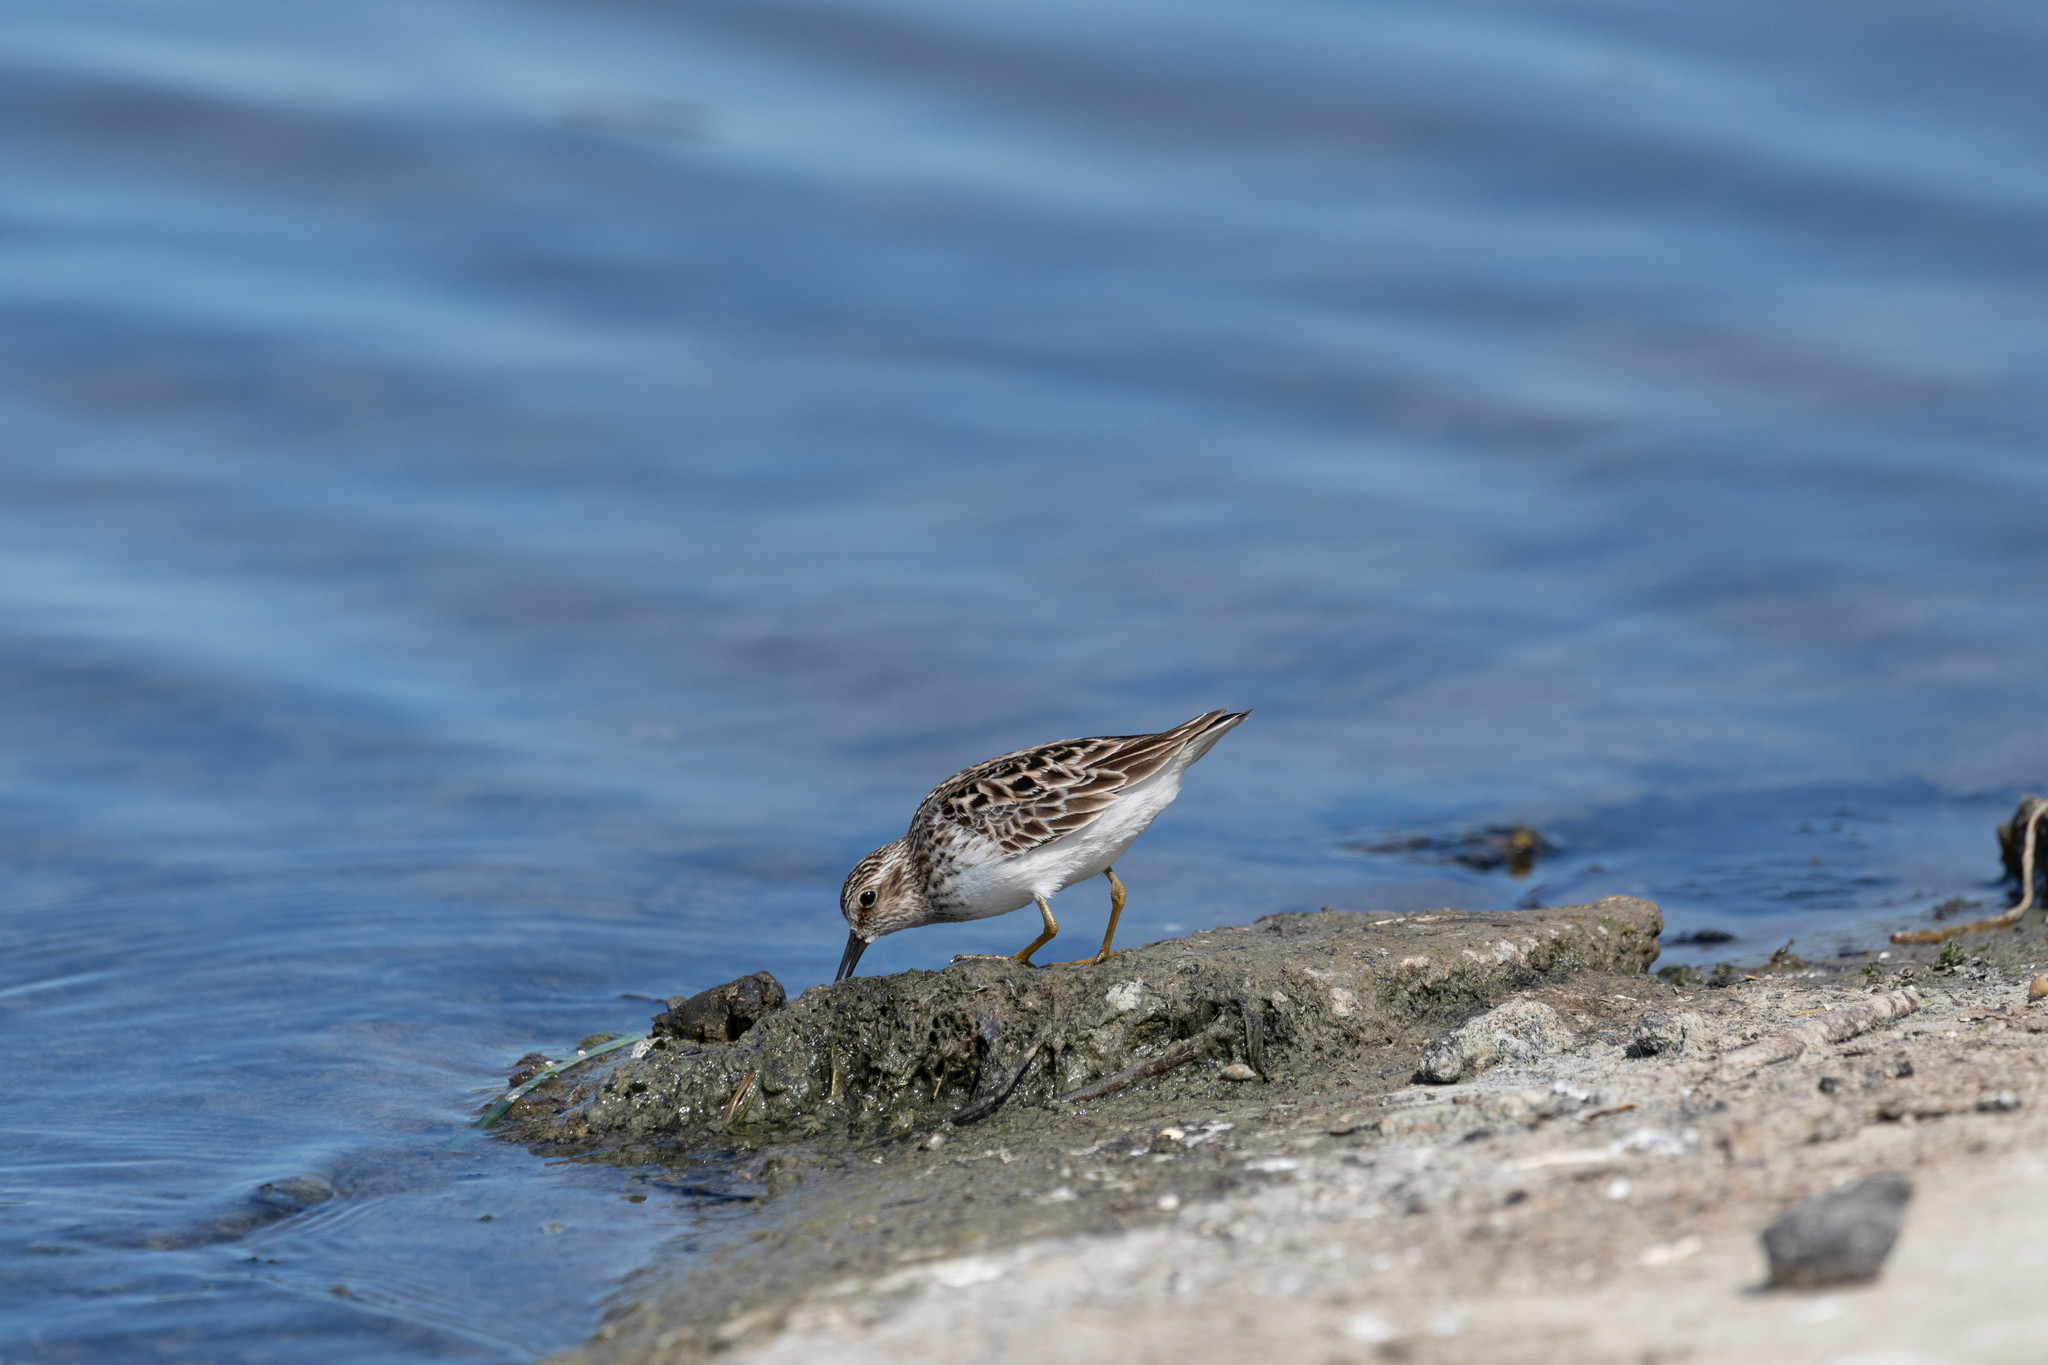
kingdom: Animalia
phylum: Chordata
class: Aves
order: Charadriiformes
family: Scolopacidae
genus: Calidris
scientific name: Calidris minutilla
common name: Least sandpiper
